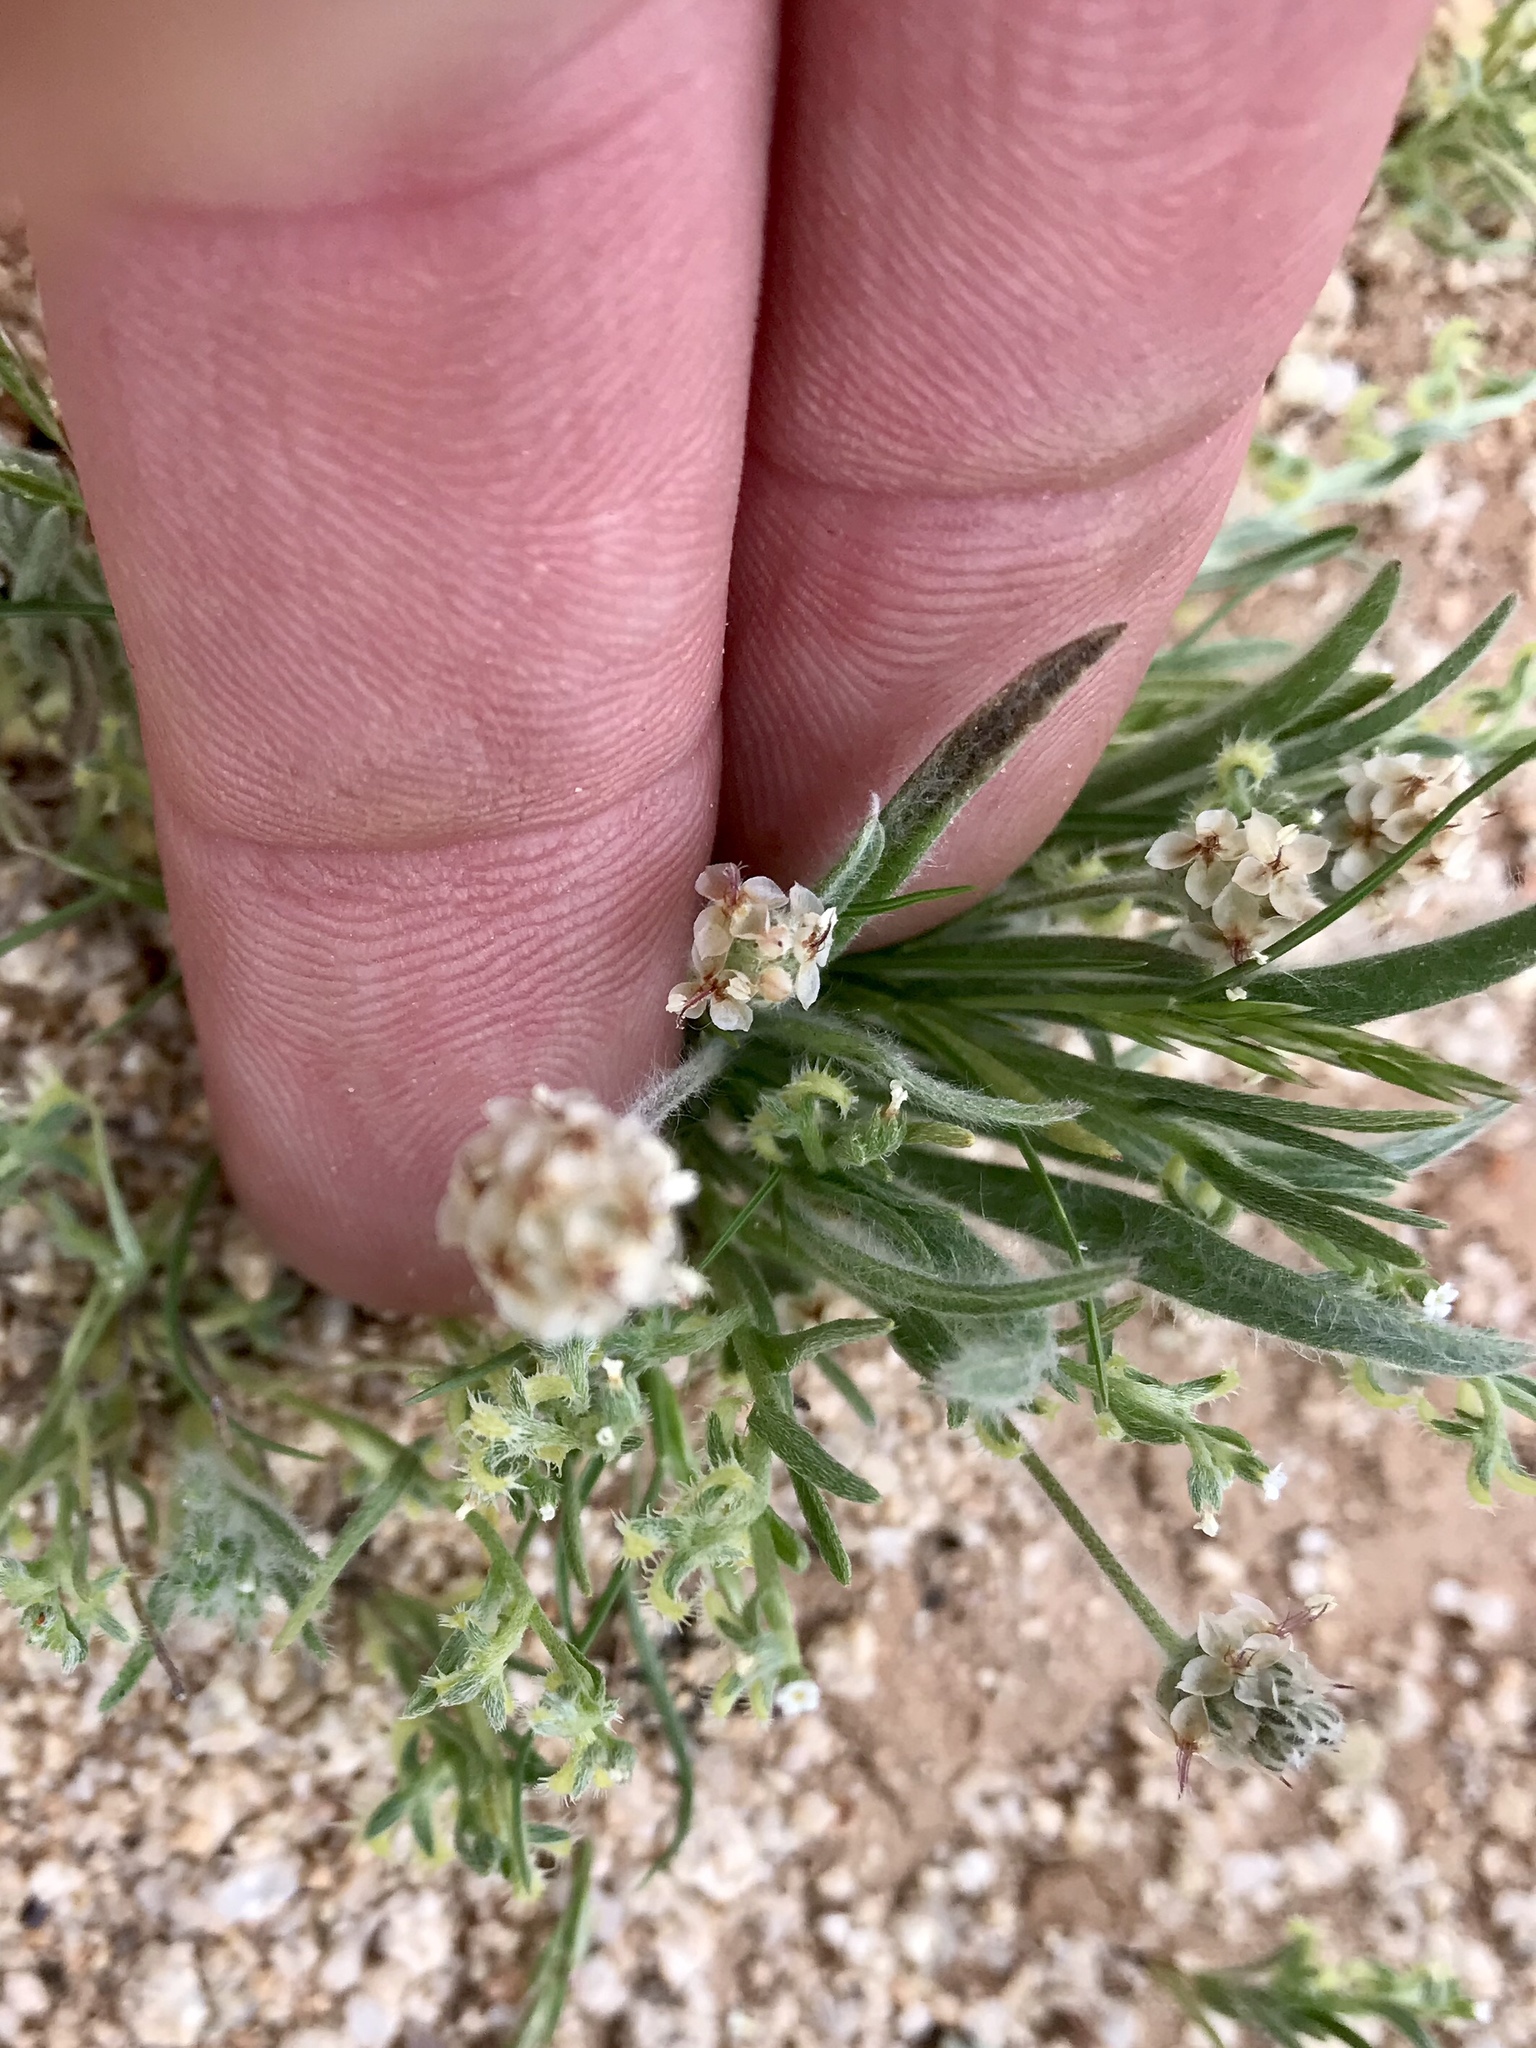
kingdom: Plantae
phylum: Tracheophyta
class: Magnoliopsida
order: Lamiales
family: Plantaginaceae
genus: Plantago
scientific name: Plantago ovata
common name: Blond plantain
